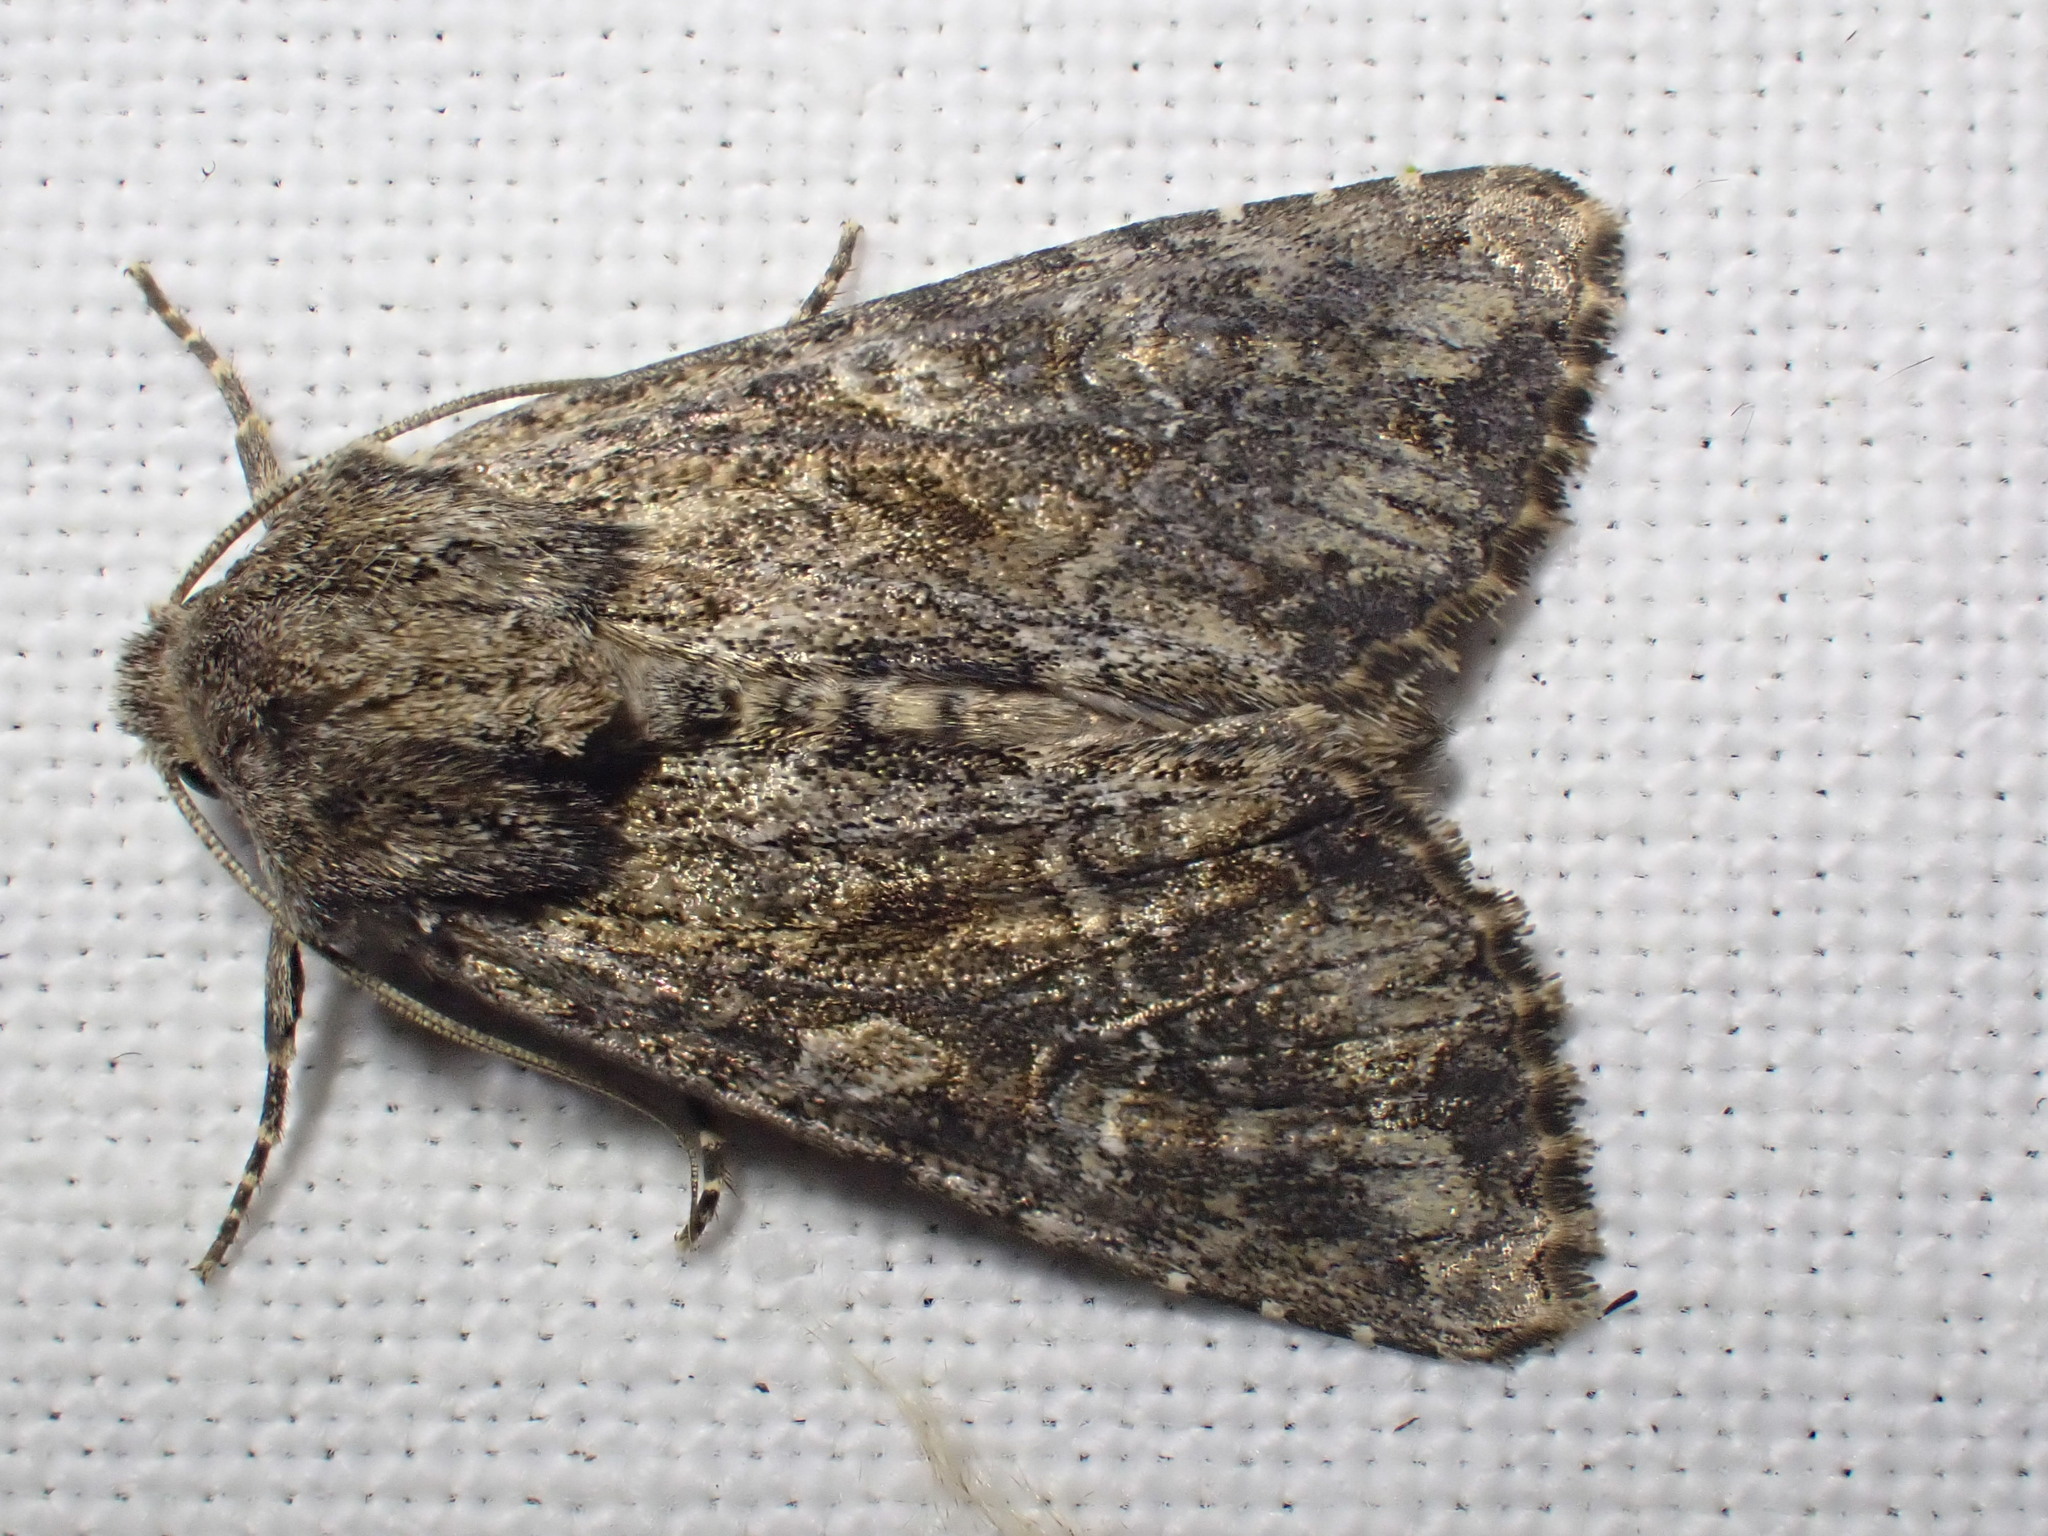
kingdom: Animalia
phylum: Arthropoda
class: Insecta
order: Lepidoptera
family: Noctuidae
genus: Apamea
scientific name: Apamea anceps
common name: Large nutmeg
